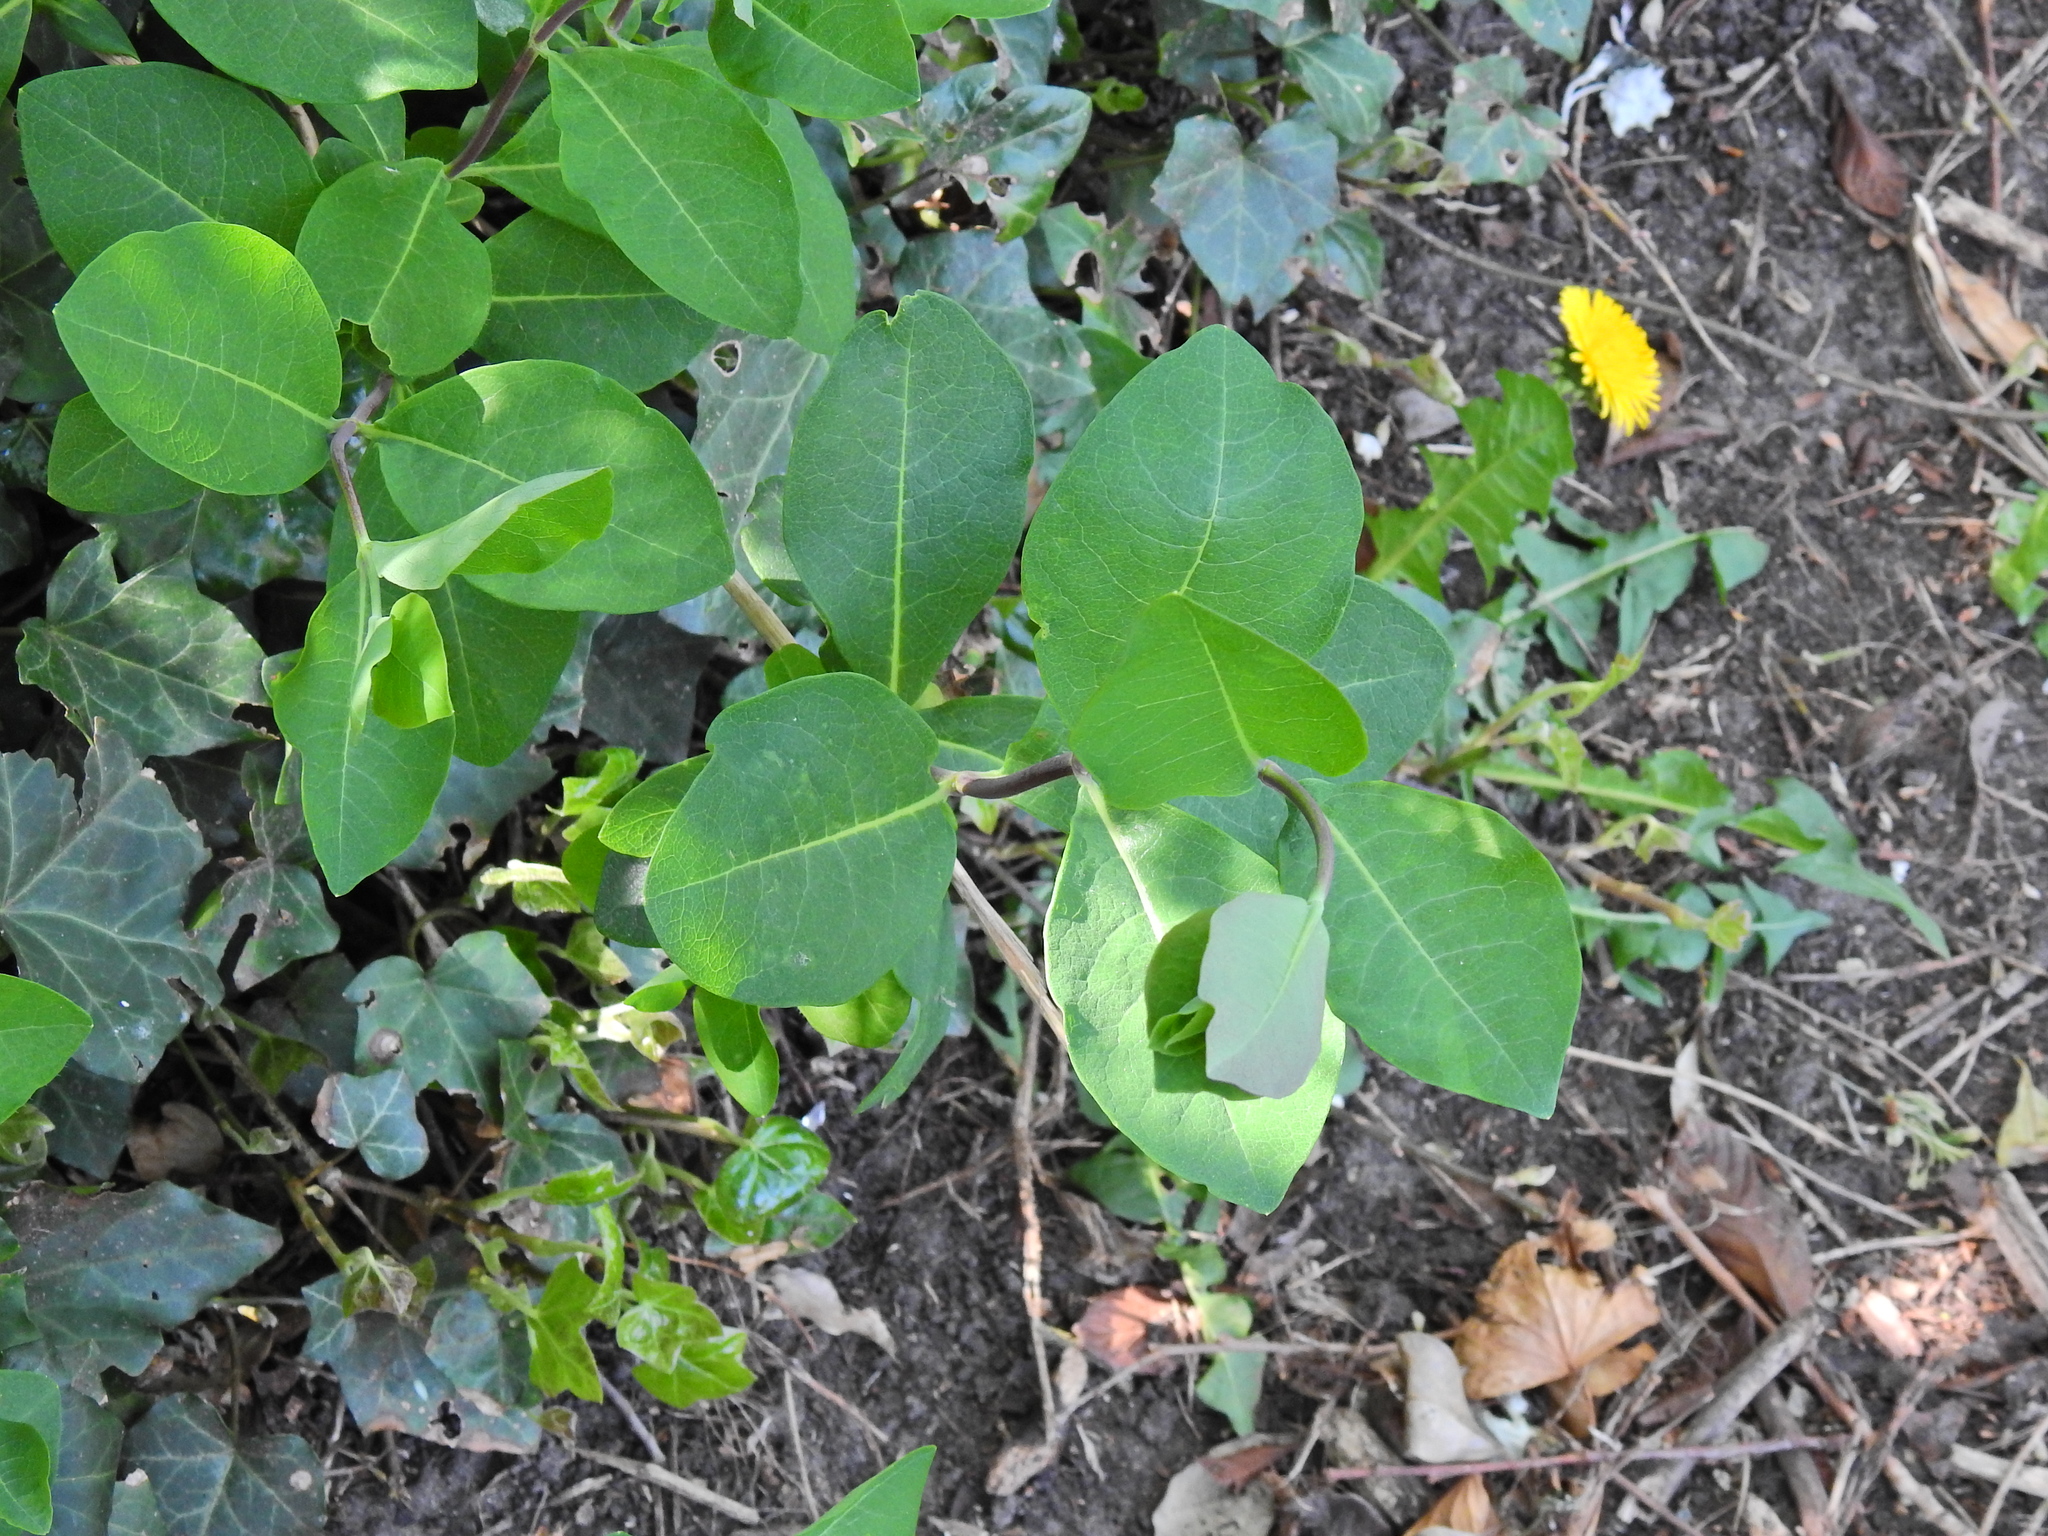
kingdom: Plantae
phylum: Tracheophyta
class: Magnoliopsida
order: Dipsacales
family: Caprifoliaceae
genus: Lonicera
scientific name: Lonicera periclymenum
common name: European honeysuckle
